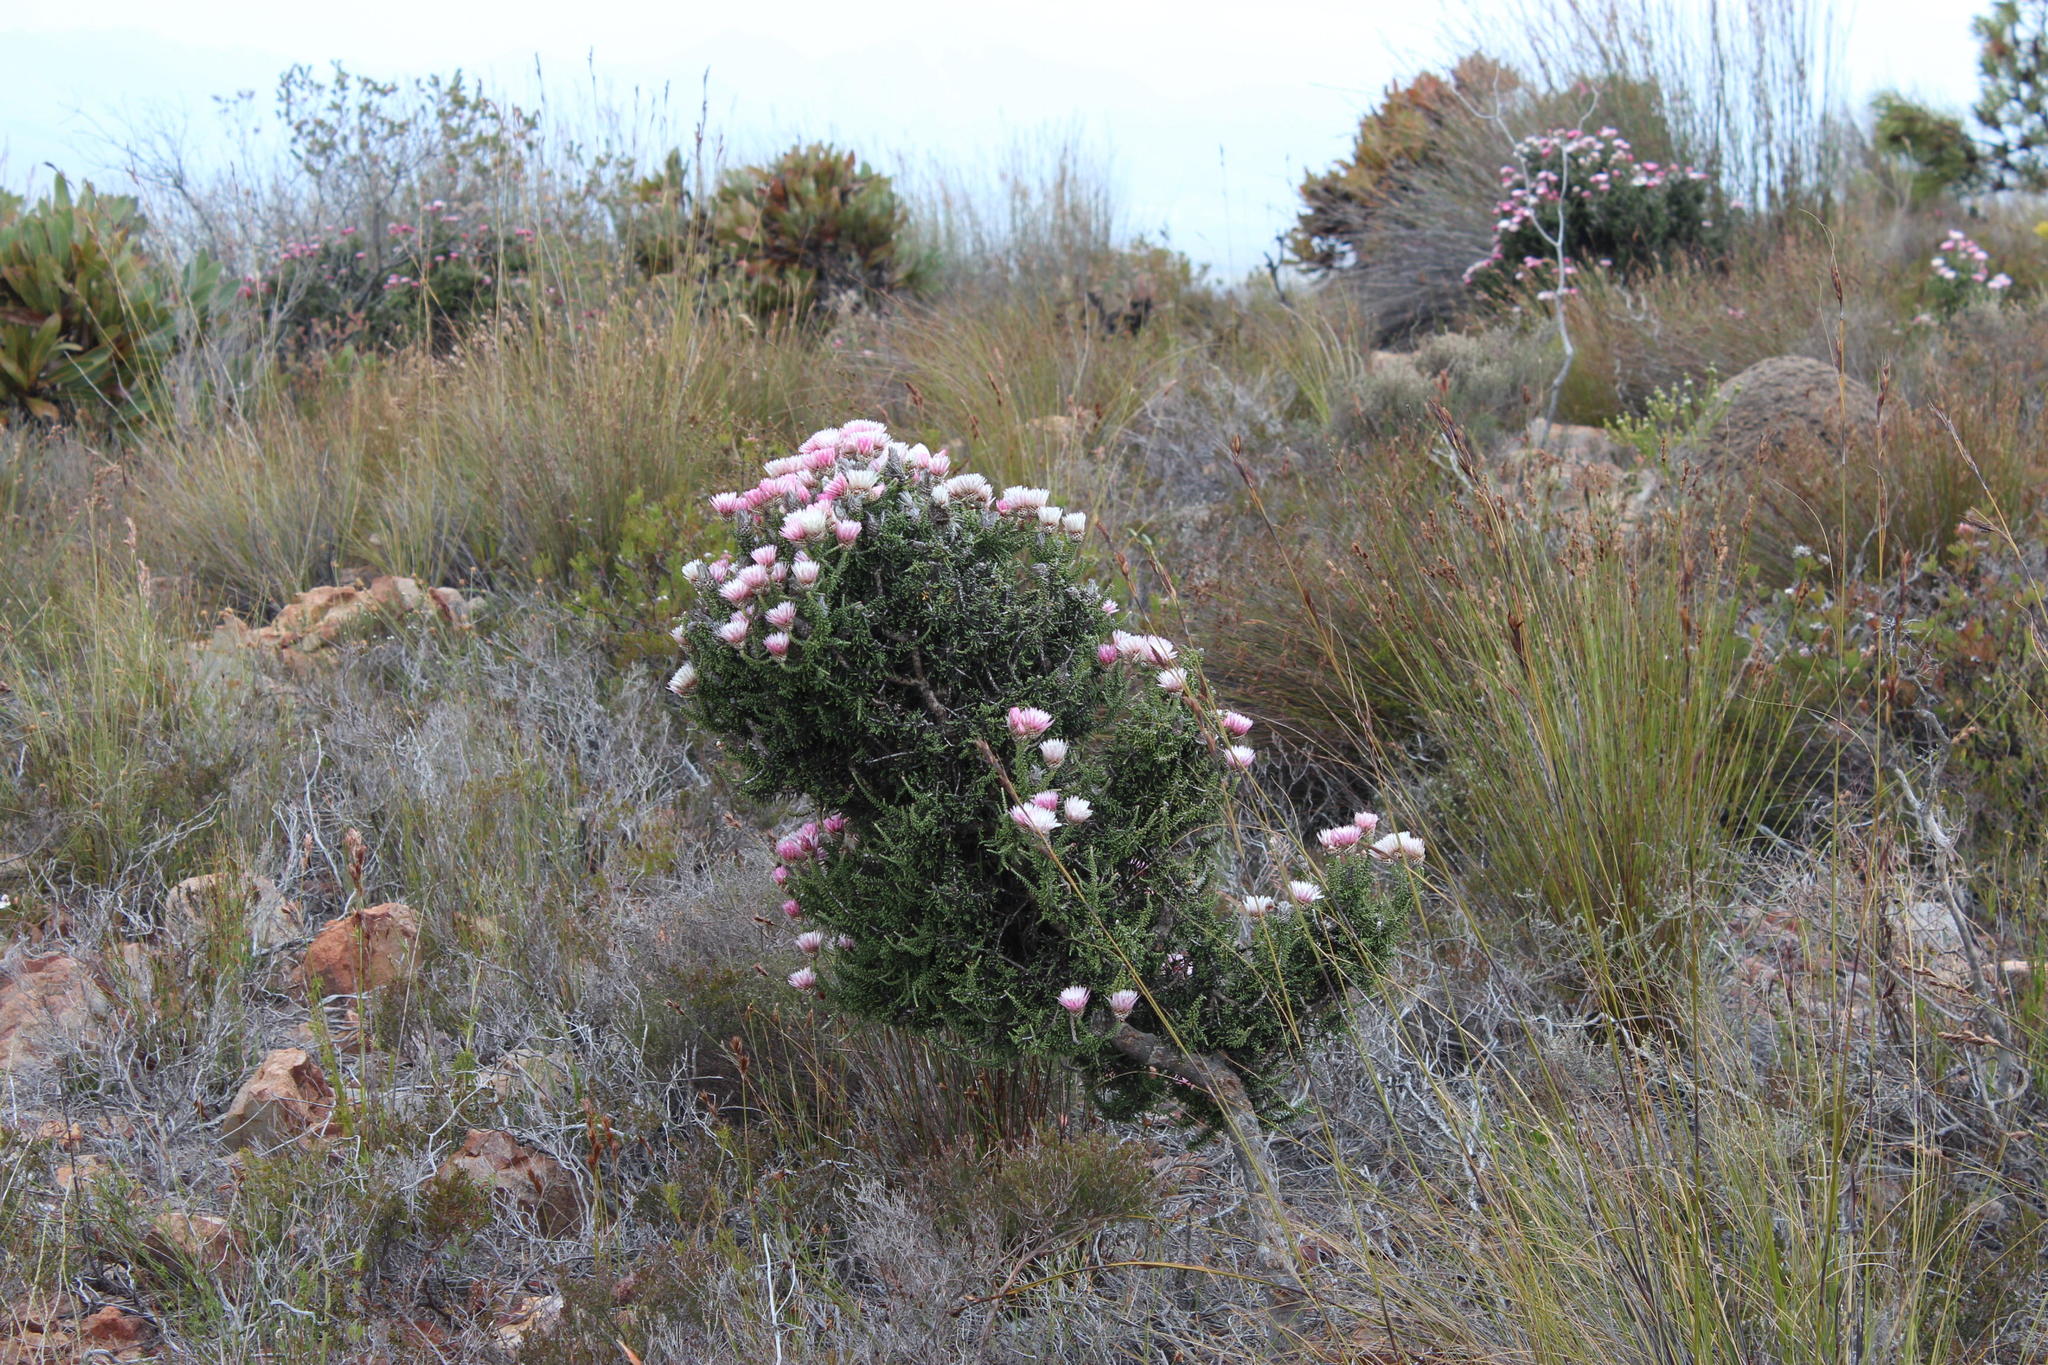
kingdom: Plantae
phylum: Tracheophyta
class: Magnoliopsida
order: Asterales
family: Asteraceae
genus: Phaenocoma
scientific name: Phaenocoma prolifera
